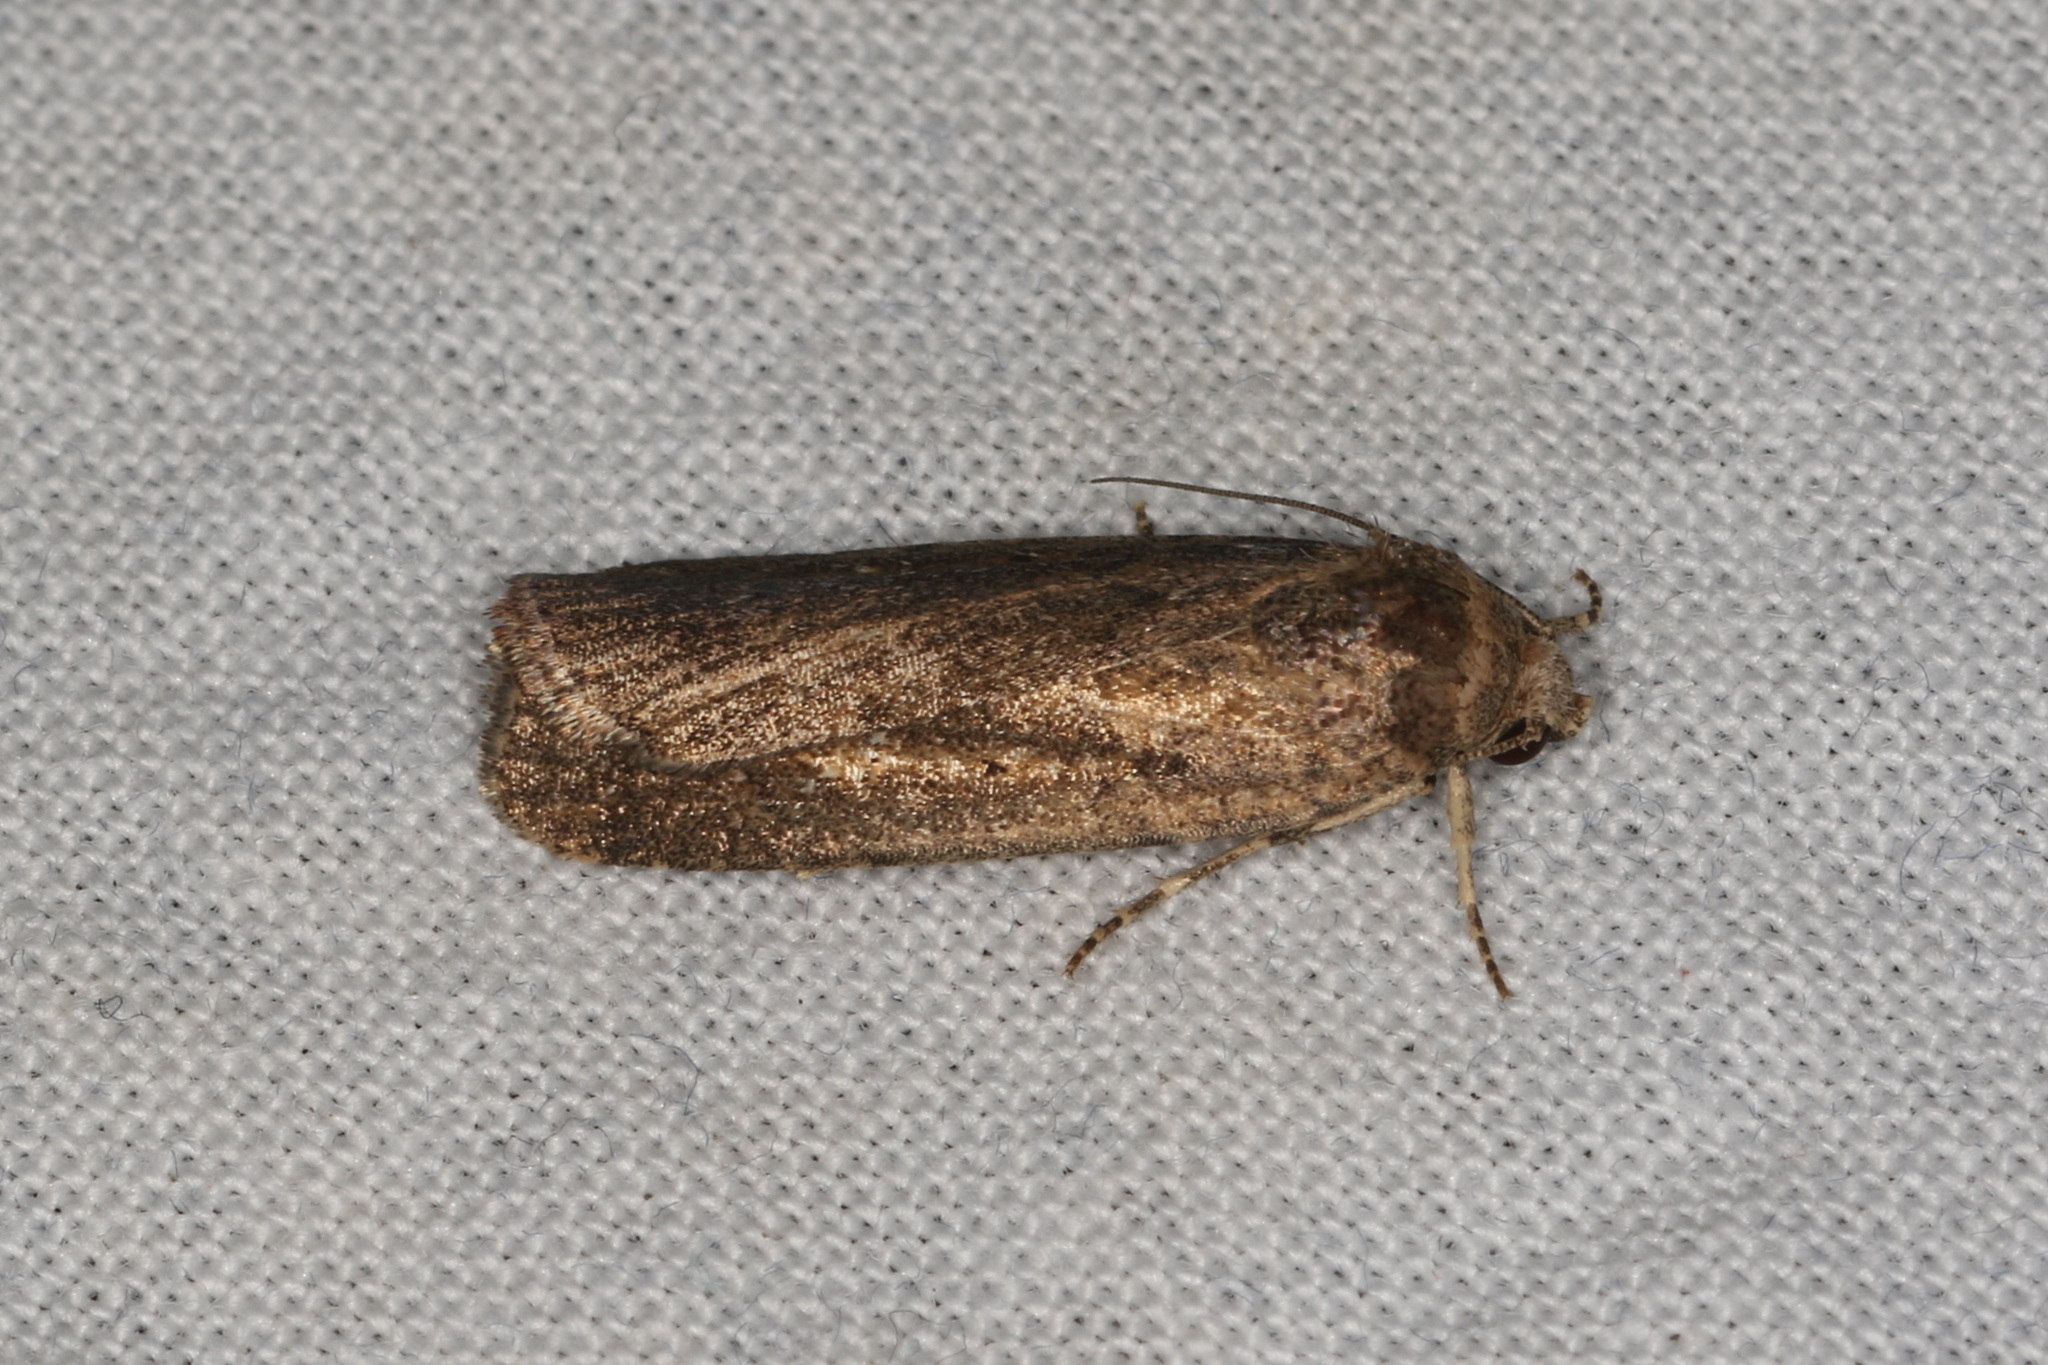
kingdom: Animalia
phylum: Arthropoda
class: Insecta
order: Lepidoptera
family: Noctuidae
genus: Athetis
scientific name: Athetis tenuis
